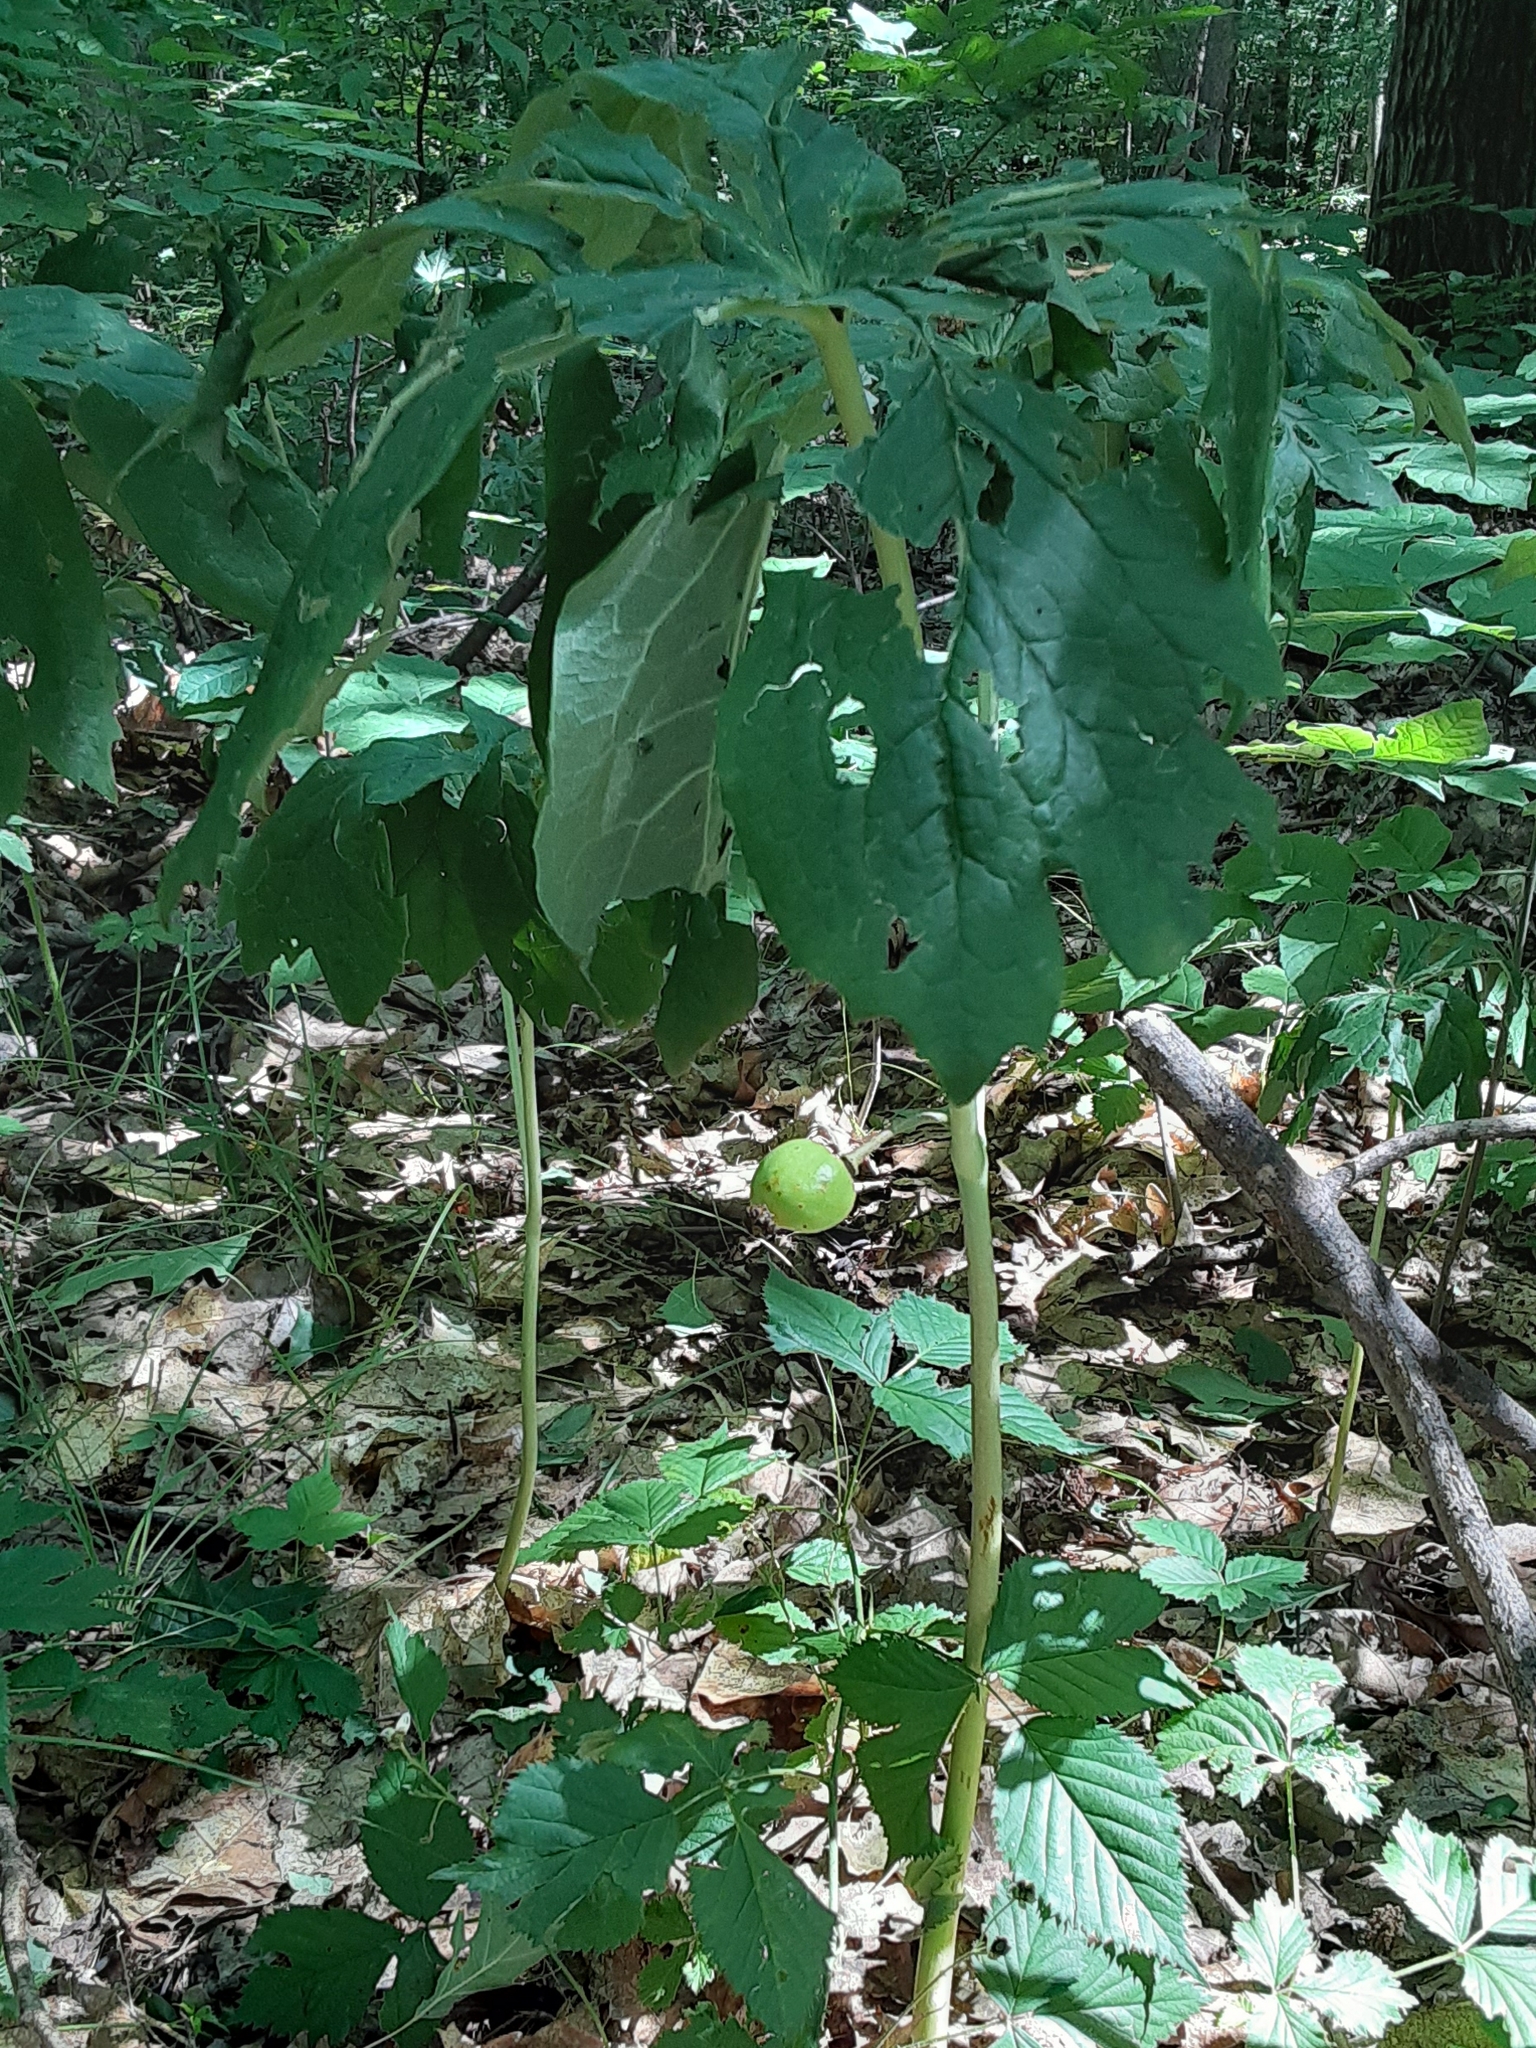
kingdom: Plantae
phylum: Tracheophyta
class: Magnoliopsida
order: Ranunculales
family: Berberidaceae
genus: Podophyllum
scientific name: Podophyllum peltatum
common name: Wild mandrake
